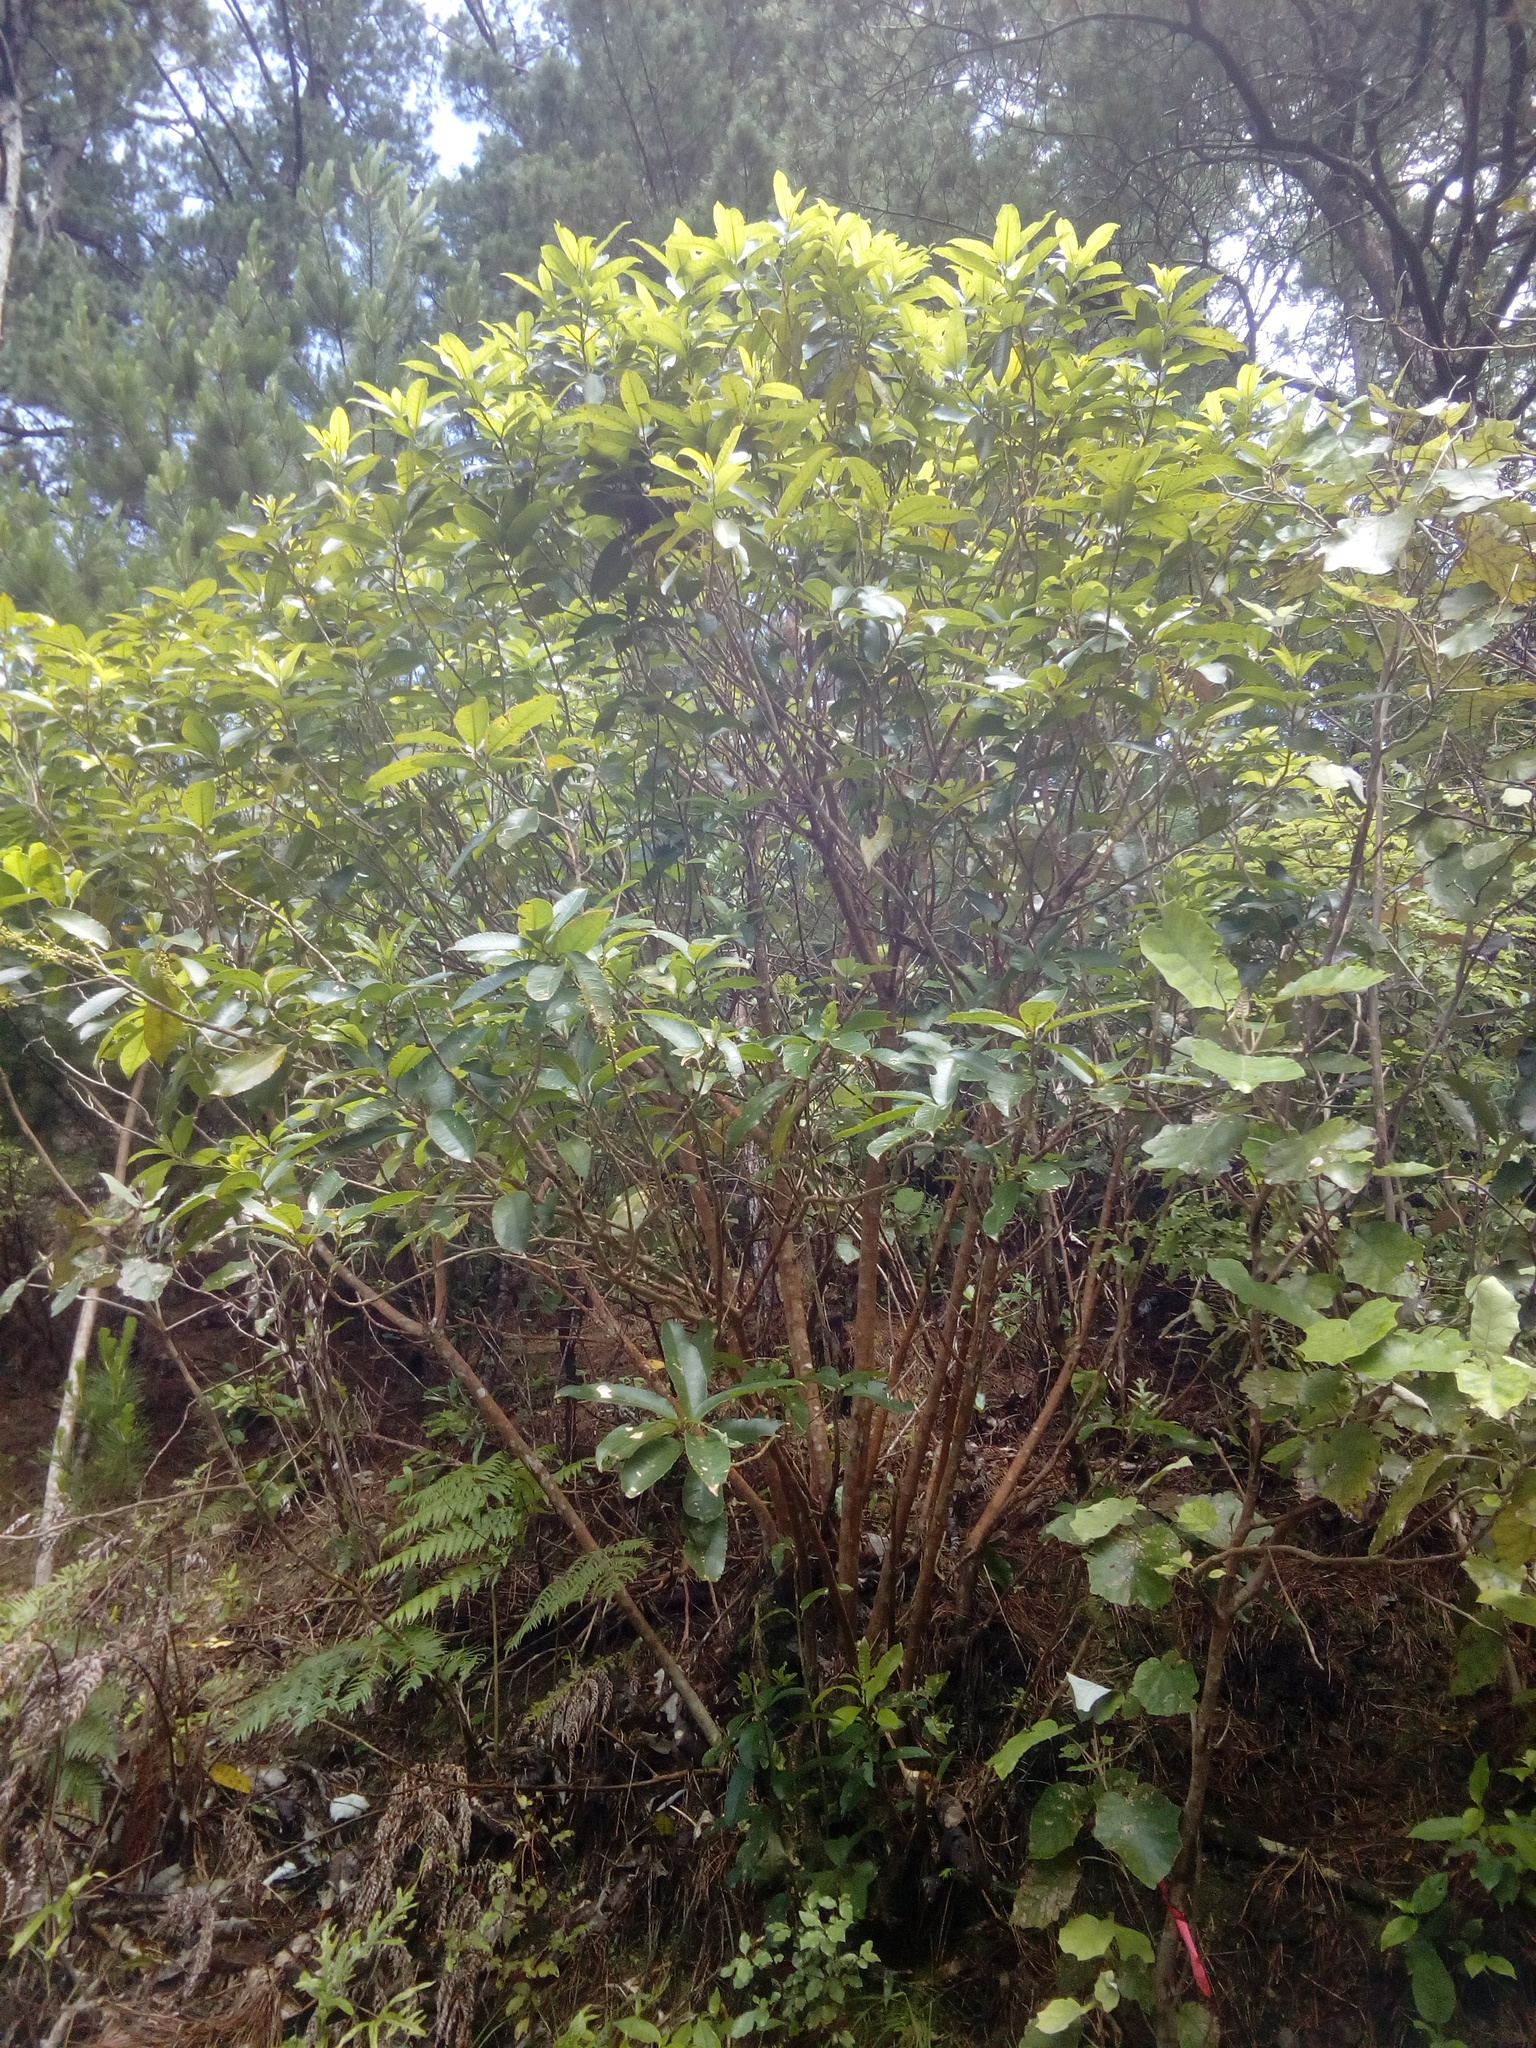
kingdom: Plantae
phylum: Tracheophyta
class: Magnoliopsida
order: Malpighiales
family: Violaceae
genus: Melicytus
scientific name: Melicytus ramiflorus
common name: Mahoe
